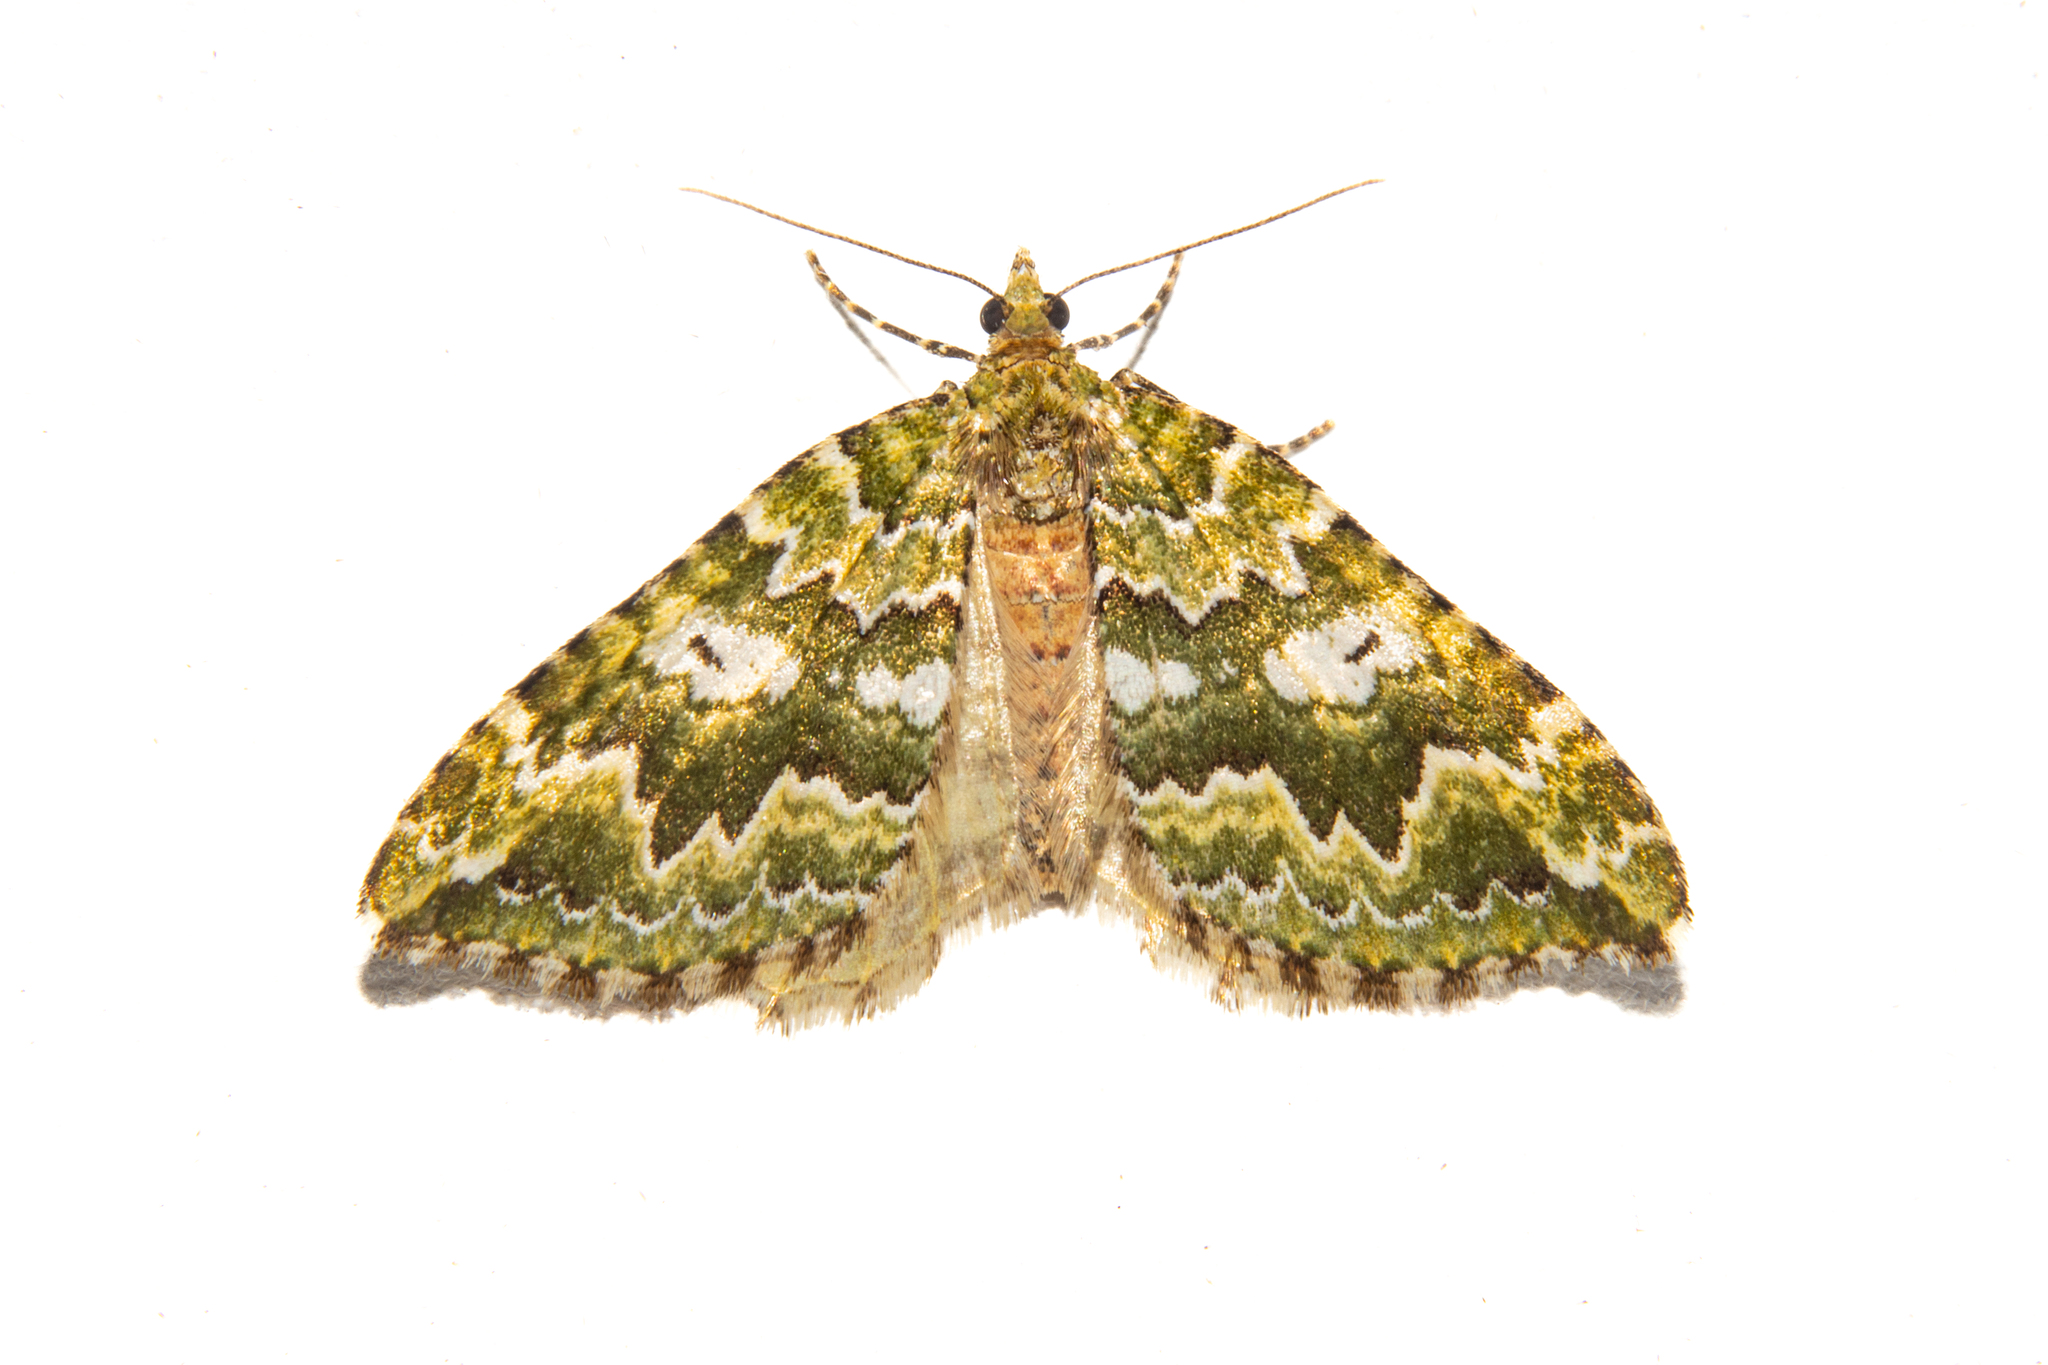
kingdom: Animalia
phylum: Arthropoda
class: Insecta
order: Lepidoptera
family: Geometridae
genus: Asaphodes
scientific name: Asaphodes beata
